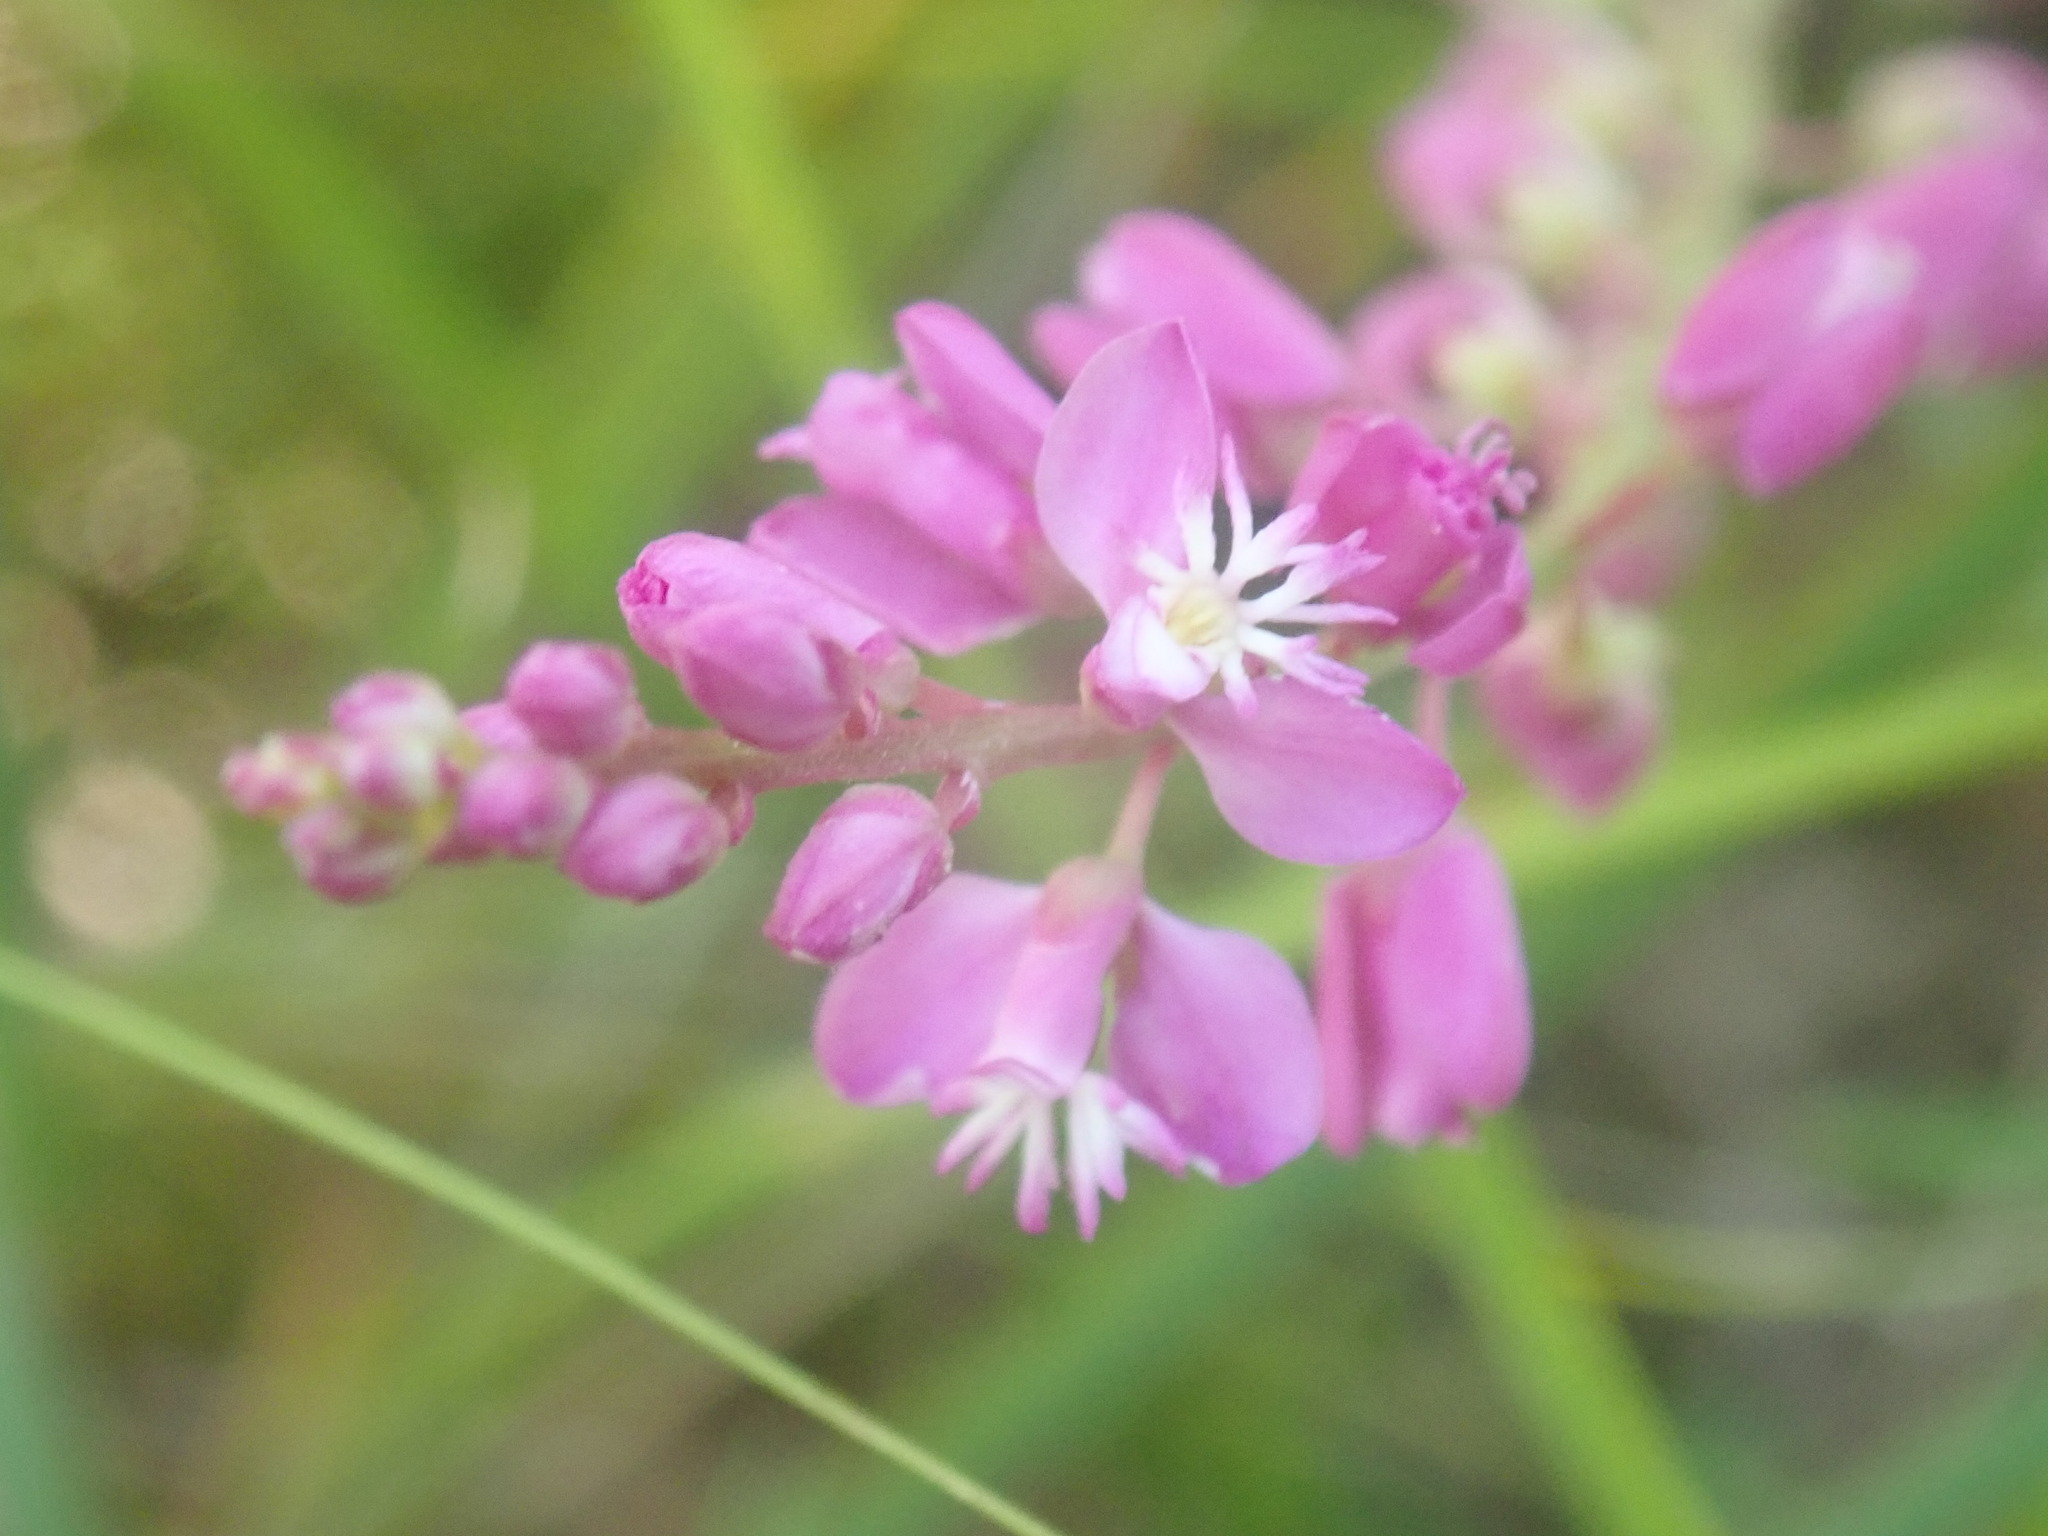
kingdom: Plantae
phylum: Tracheophyta
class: Magnoliopsida
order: Fabales
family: Polygalaceae
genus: Polygala
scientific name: Polygala polygama
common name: Bitter milkwort
